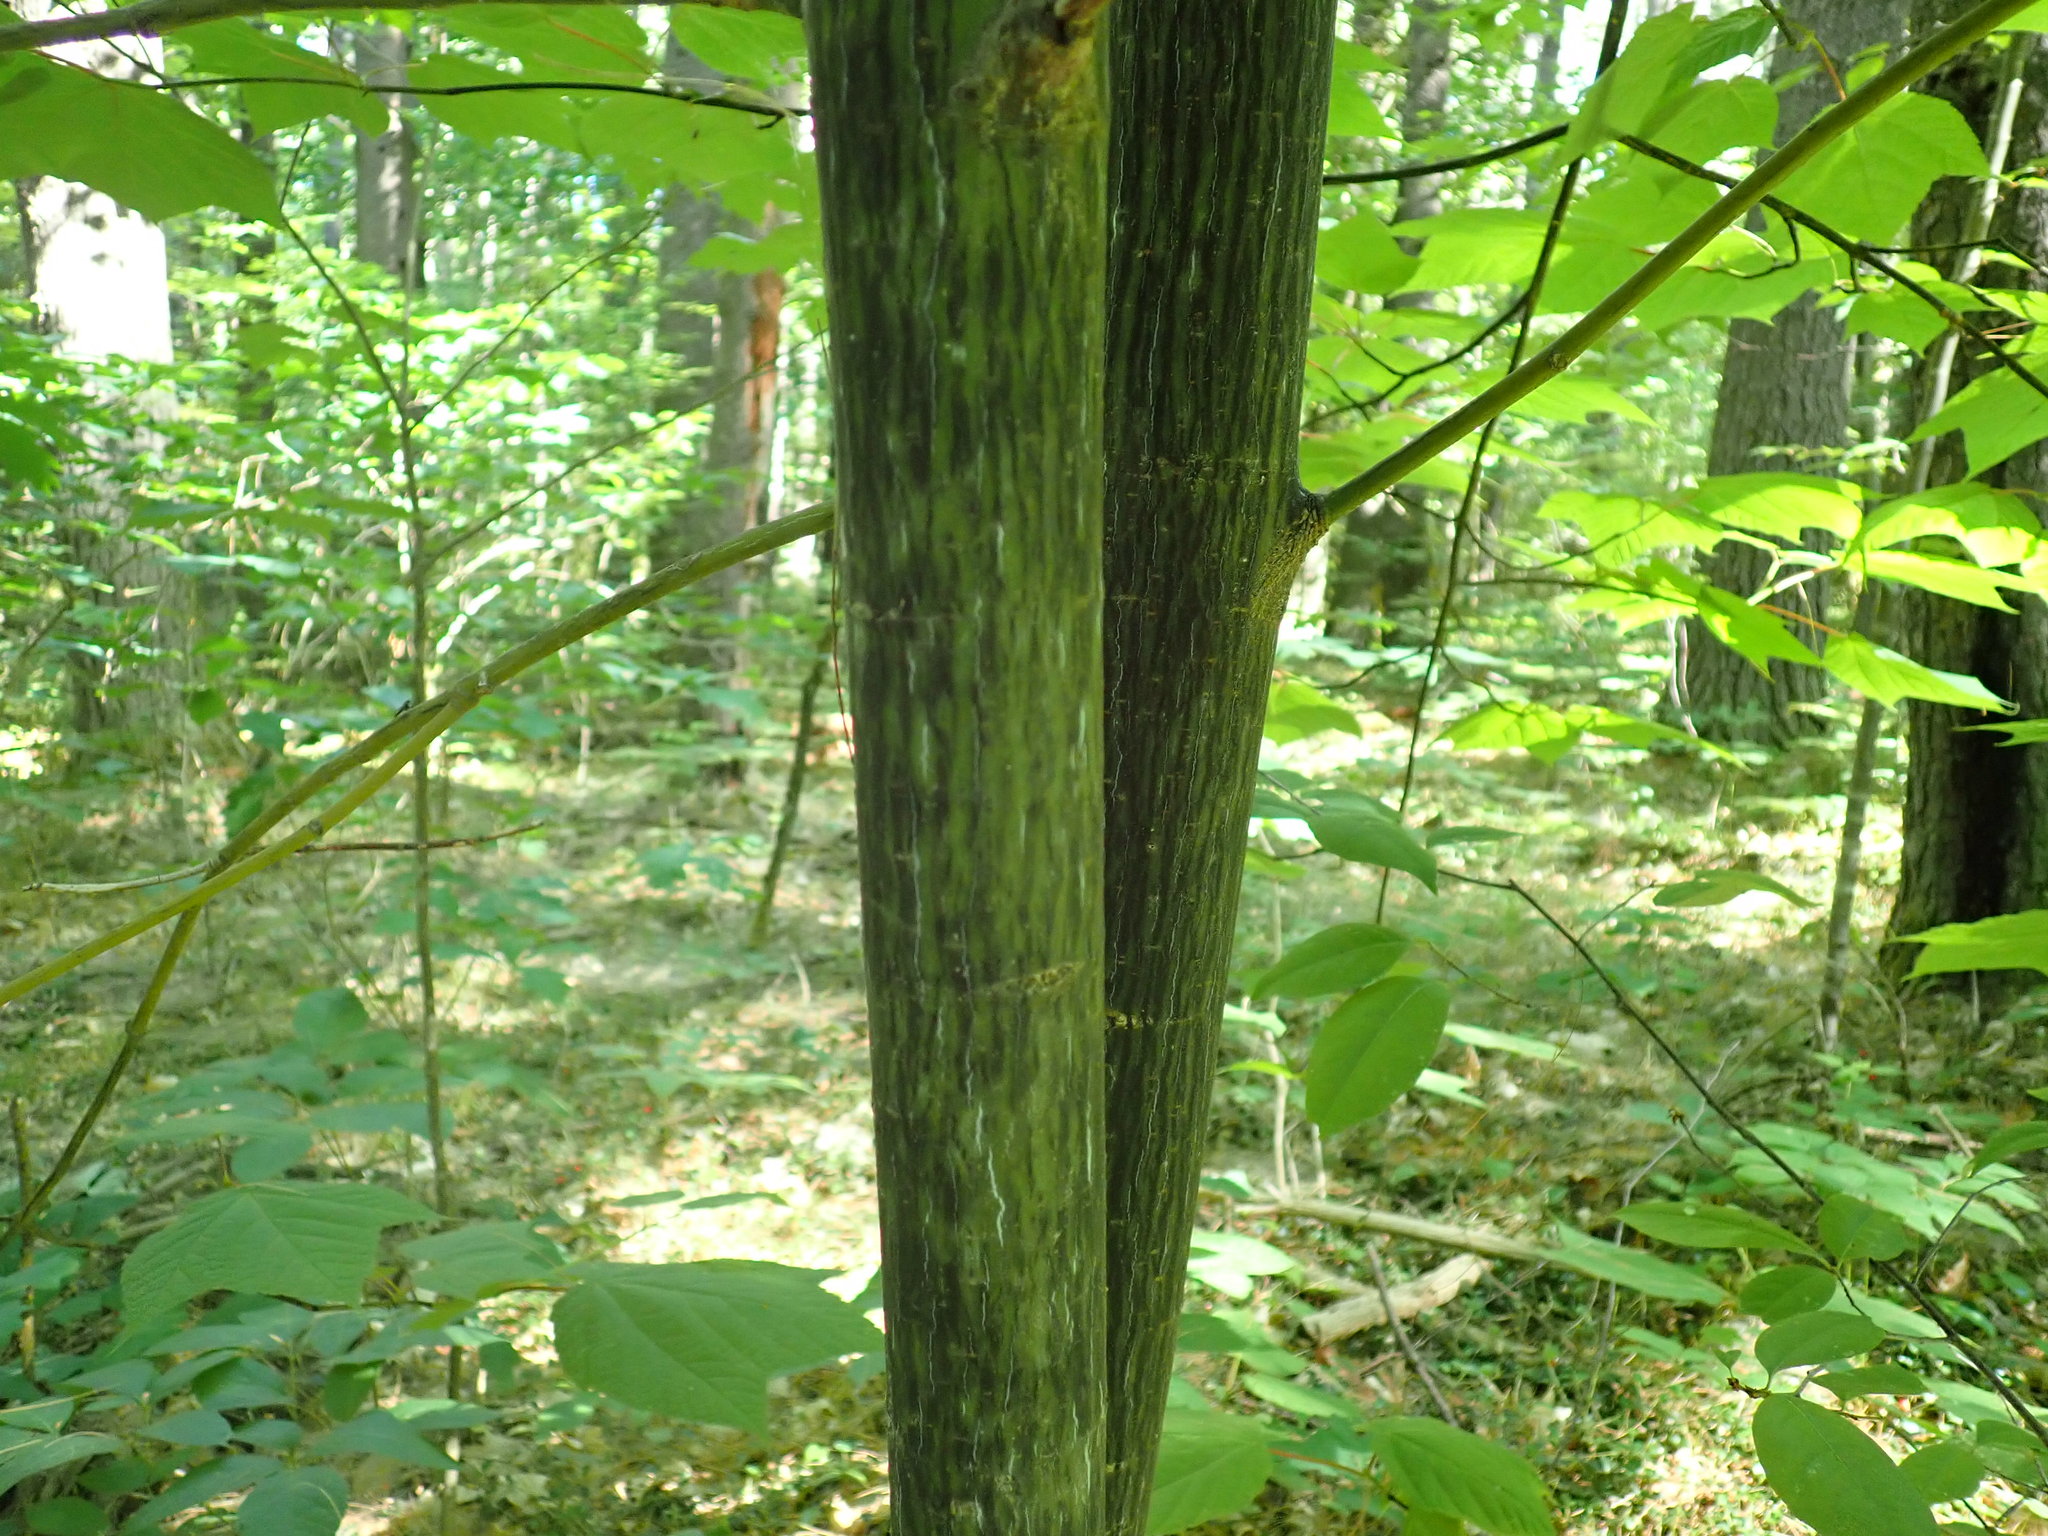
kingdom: Plantae
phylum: Tracheophyta
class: Magnoliopsida
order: Sapindales
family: Sapindaceae
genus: Acer
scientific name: Acer pensylvanicum
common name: Moosewood
